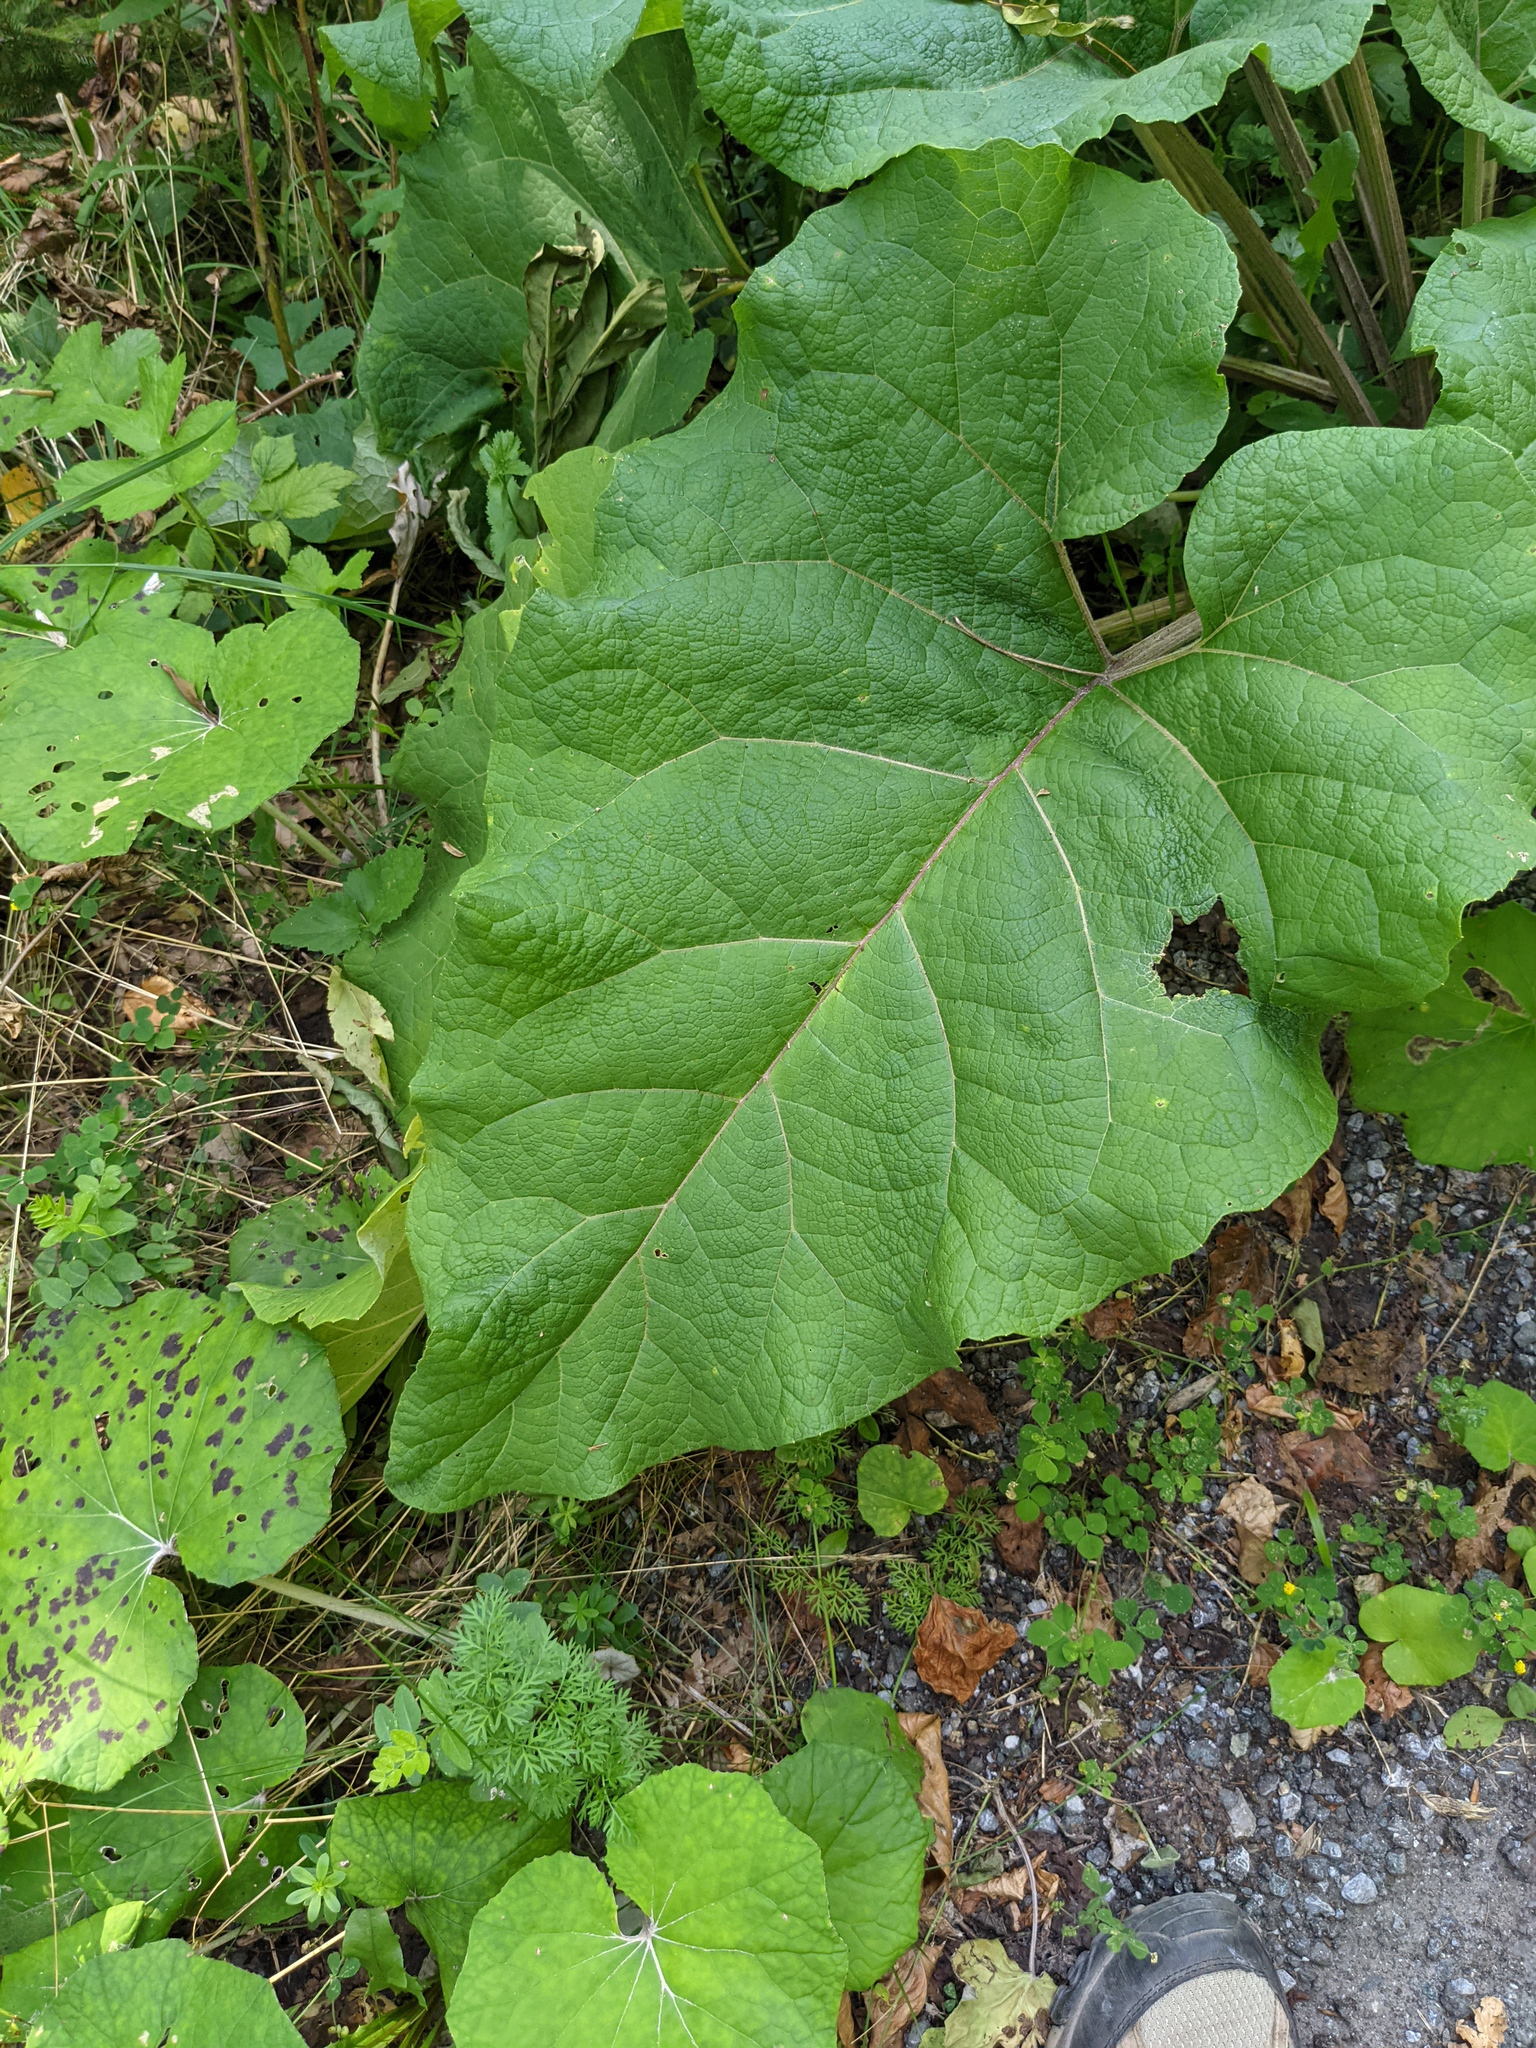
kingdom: Plantae
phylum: Tracheophyta
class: Magnoliopsida
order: Asterales
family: Asteraceae
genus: Arctium
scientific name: Arctium lappa
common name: Greater burdock
